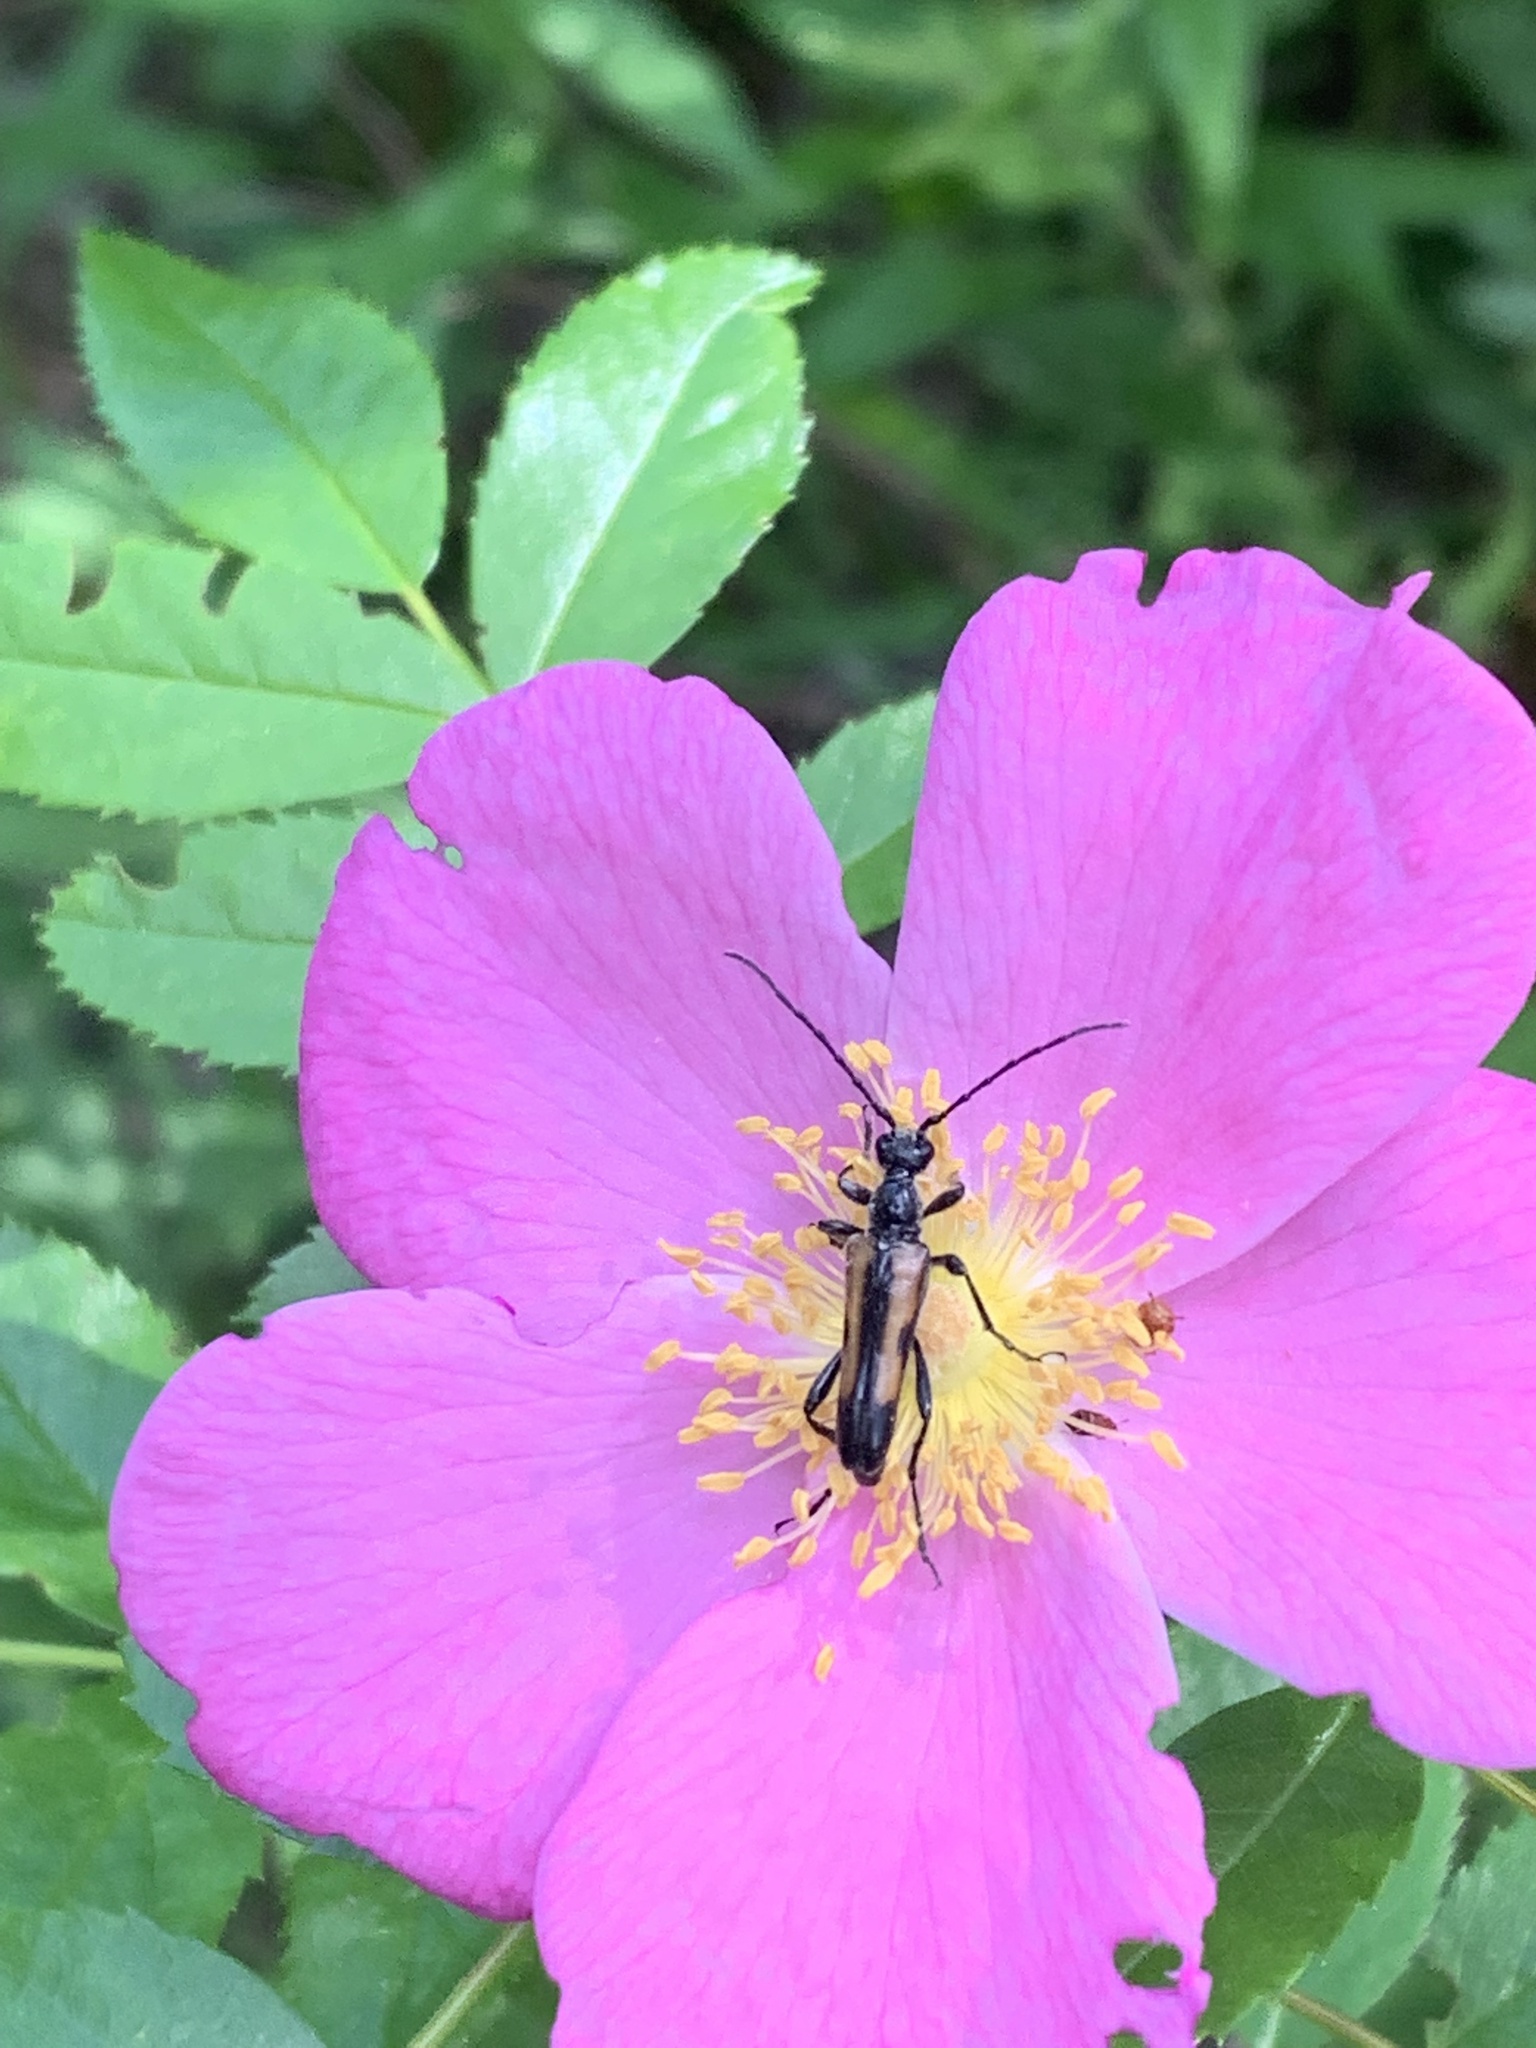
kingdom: Animalia
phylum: Arthropoda
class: Insecta
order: Coleoptera
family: Cerambycidae
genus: Strangalepta
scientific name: Strangalepta abbreviata
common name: Strangalepta flower longhorn beetle
